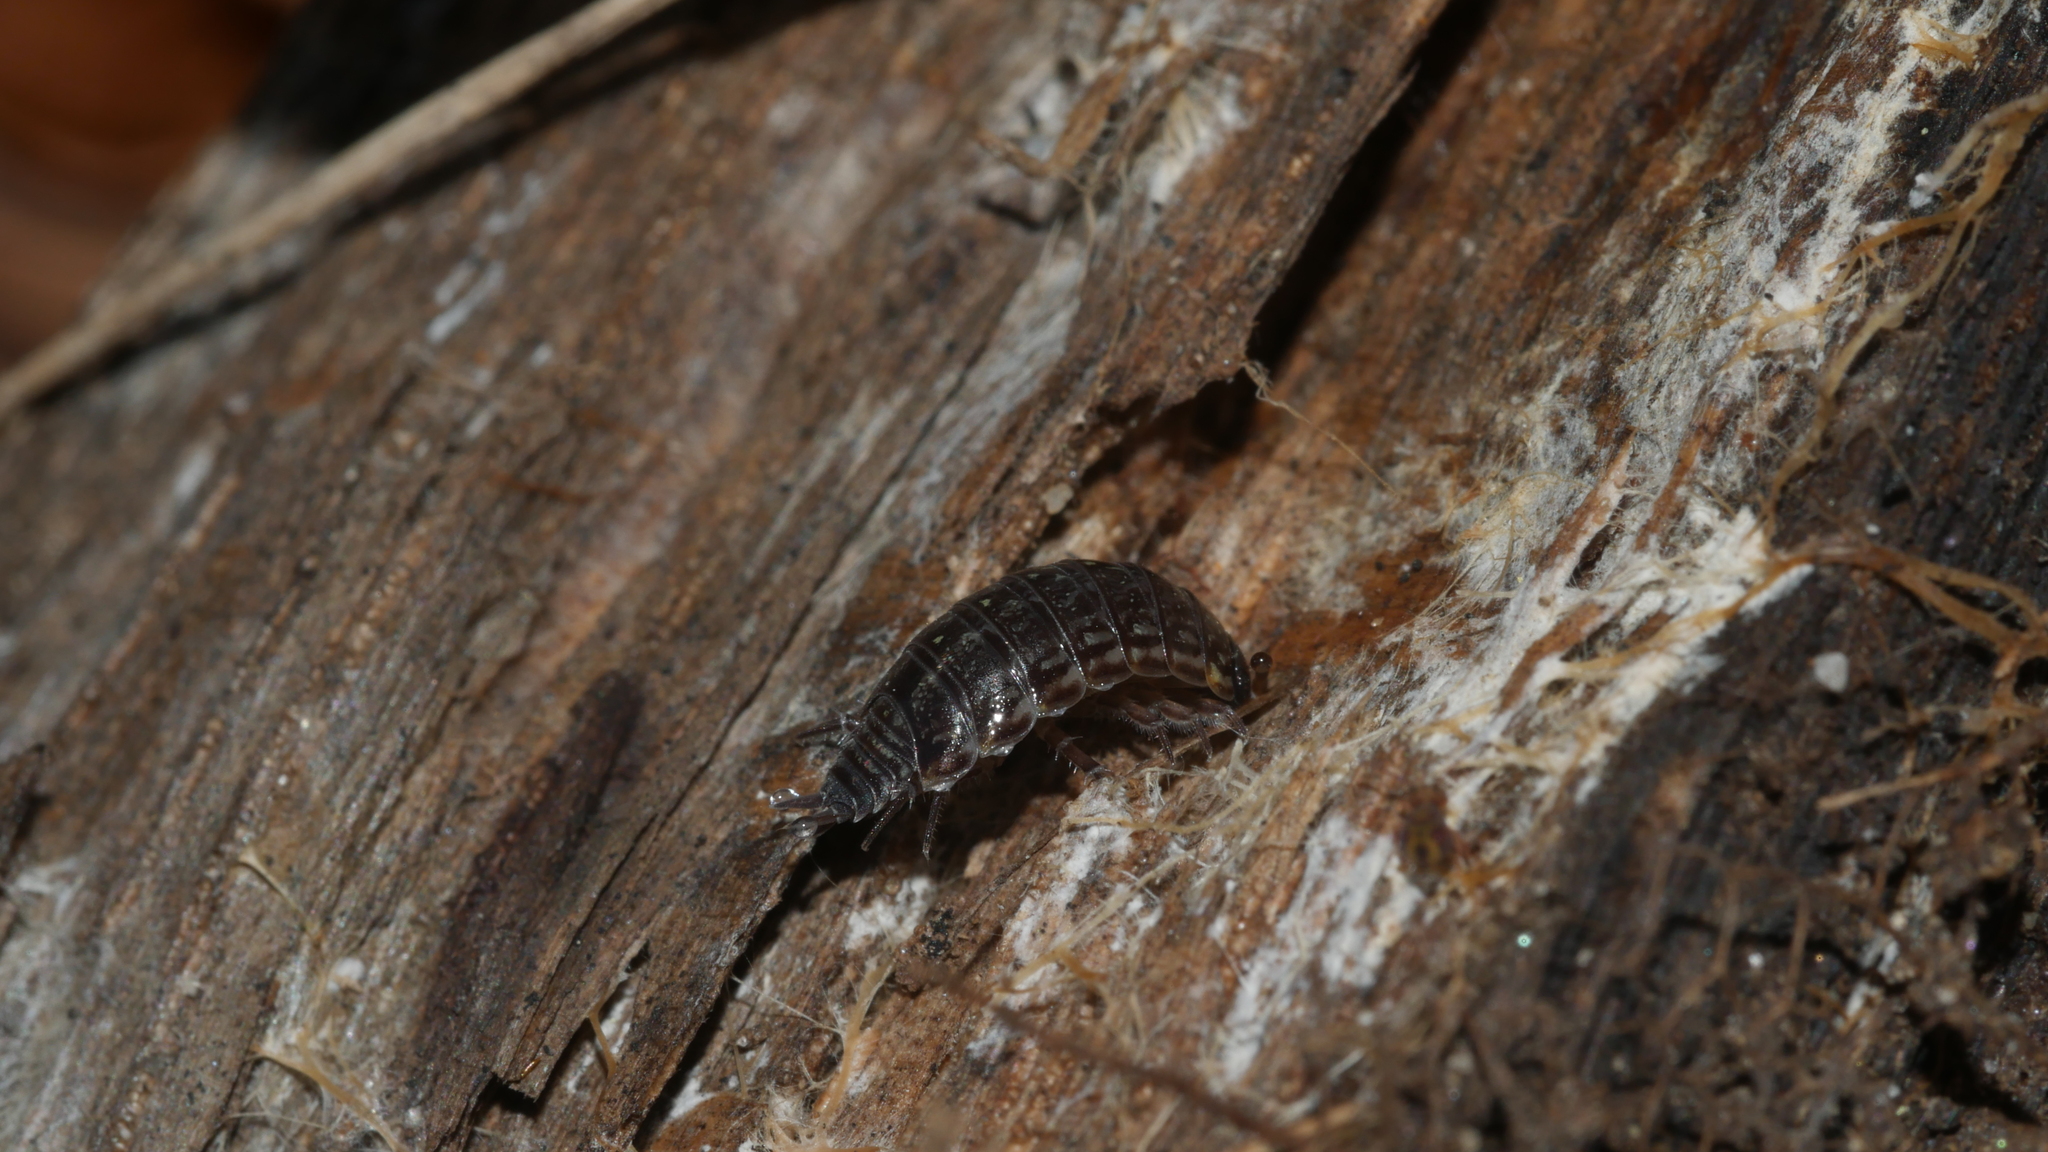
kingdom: Animalia
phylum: Arthropoda
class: Malacostraca
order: Isopoda
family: Philosciidae
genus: Philoscia
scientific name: Philoscia muscorum
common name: Common striped woodlouse
